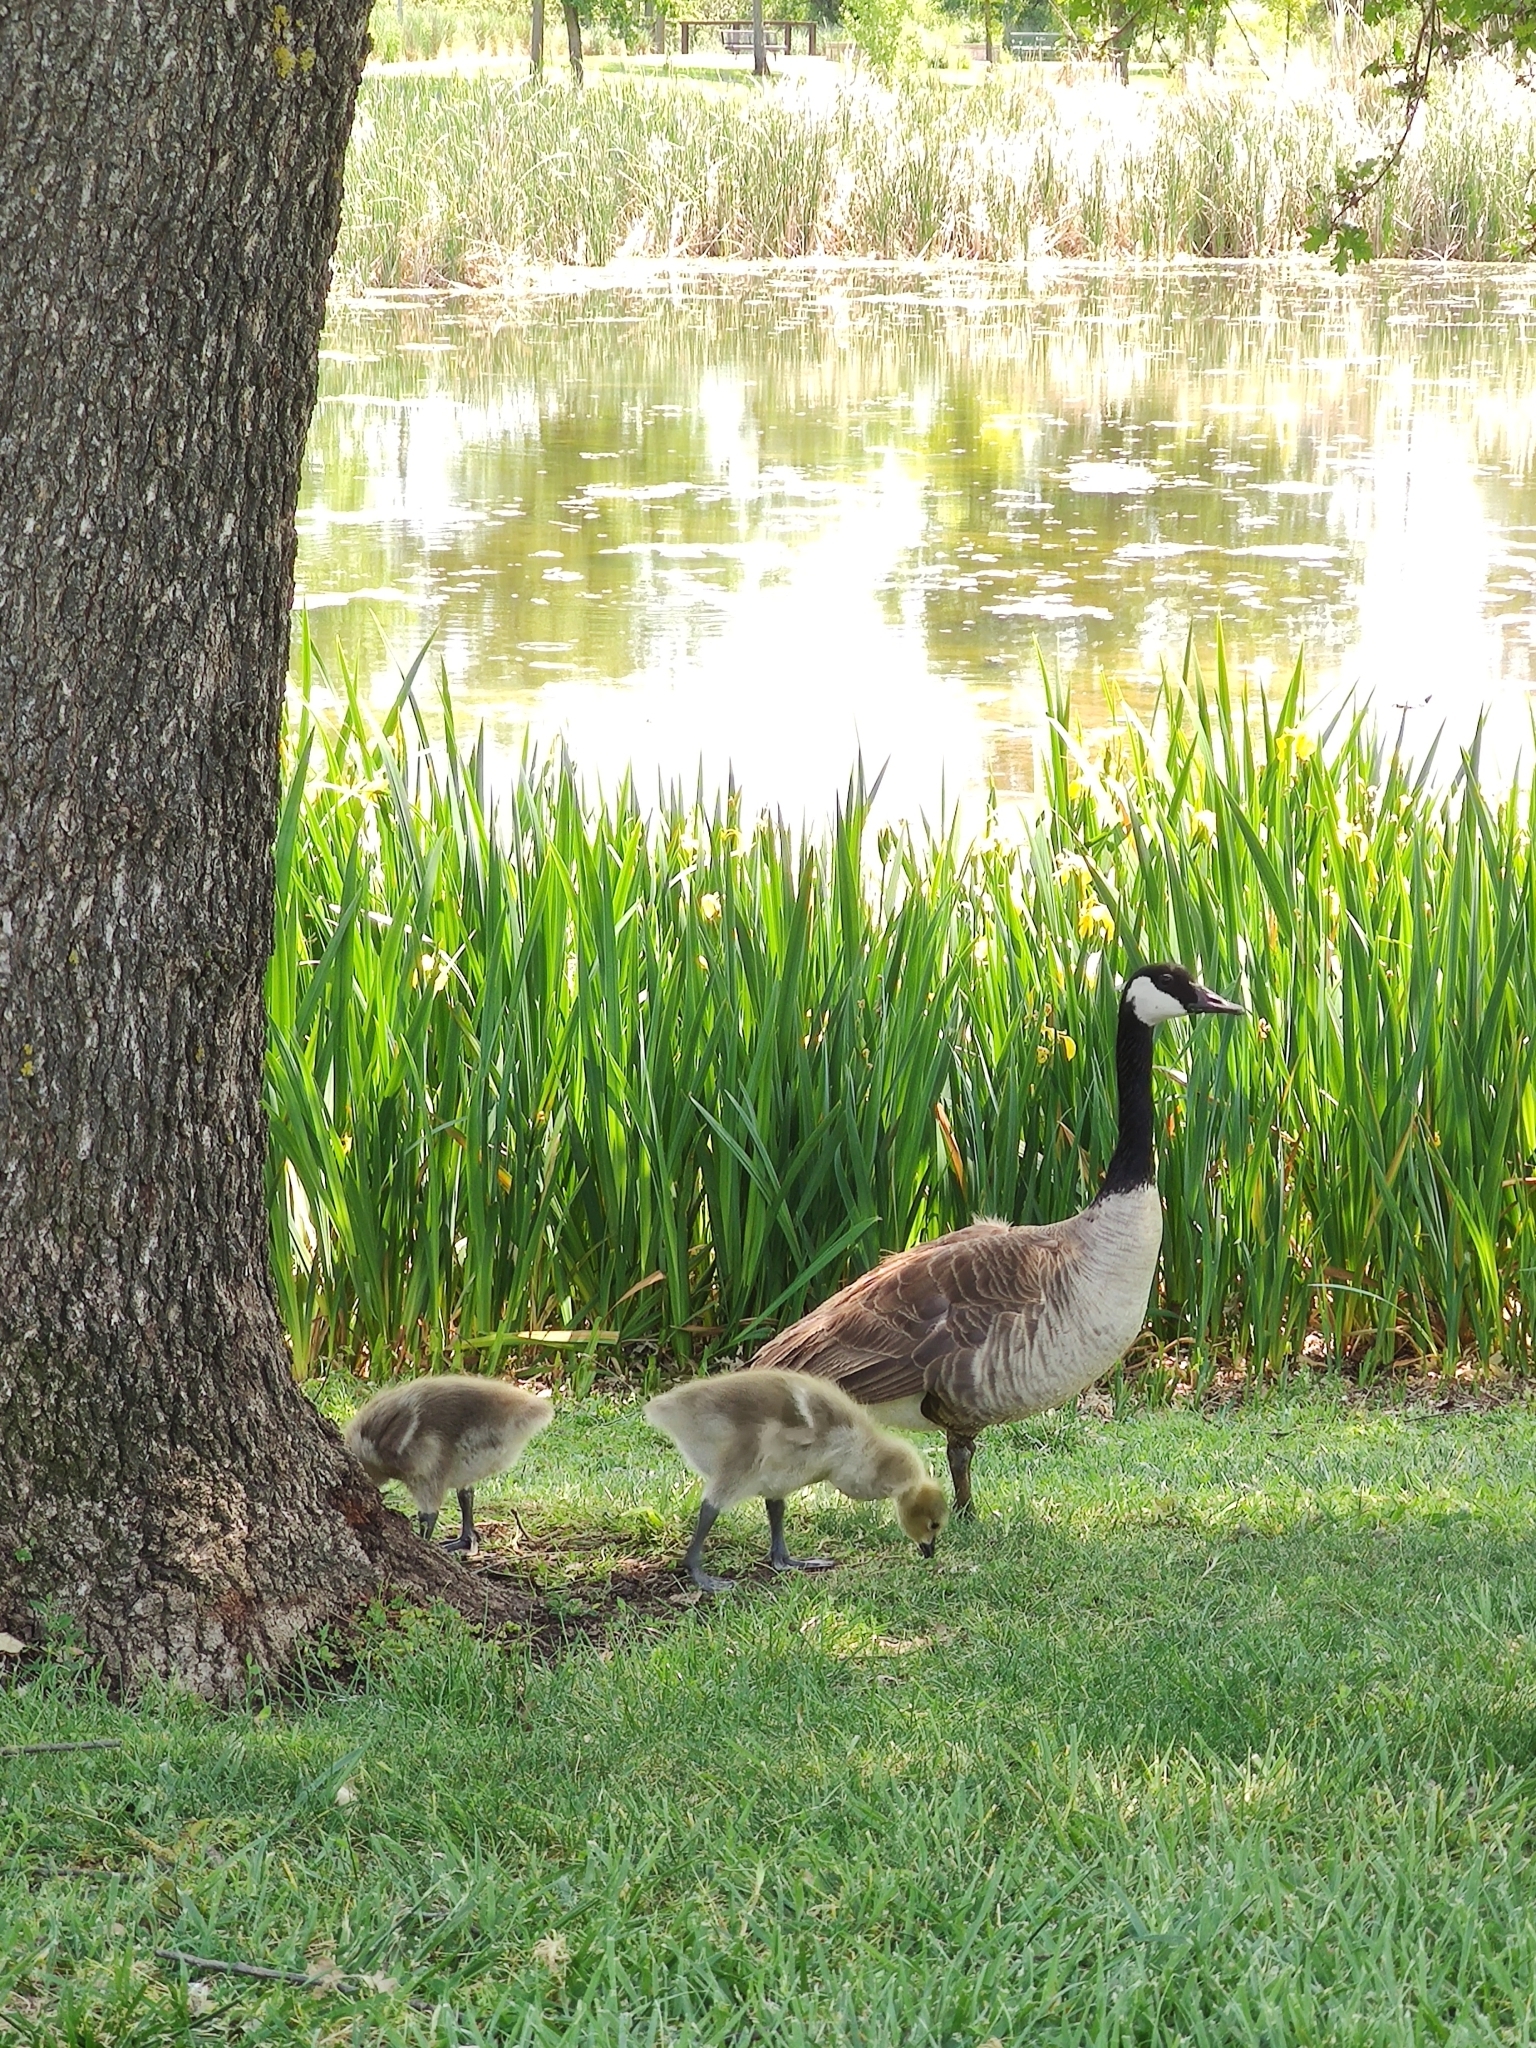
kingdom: Animalia
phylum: Chordata
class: Aves
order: Anseriformes
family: Anatidae
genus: Branta
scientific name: Branta canadensis
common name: Canada goose
